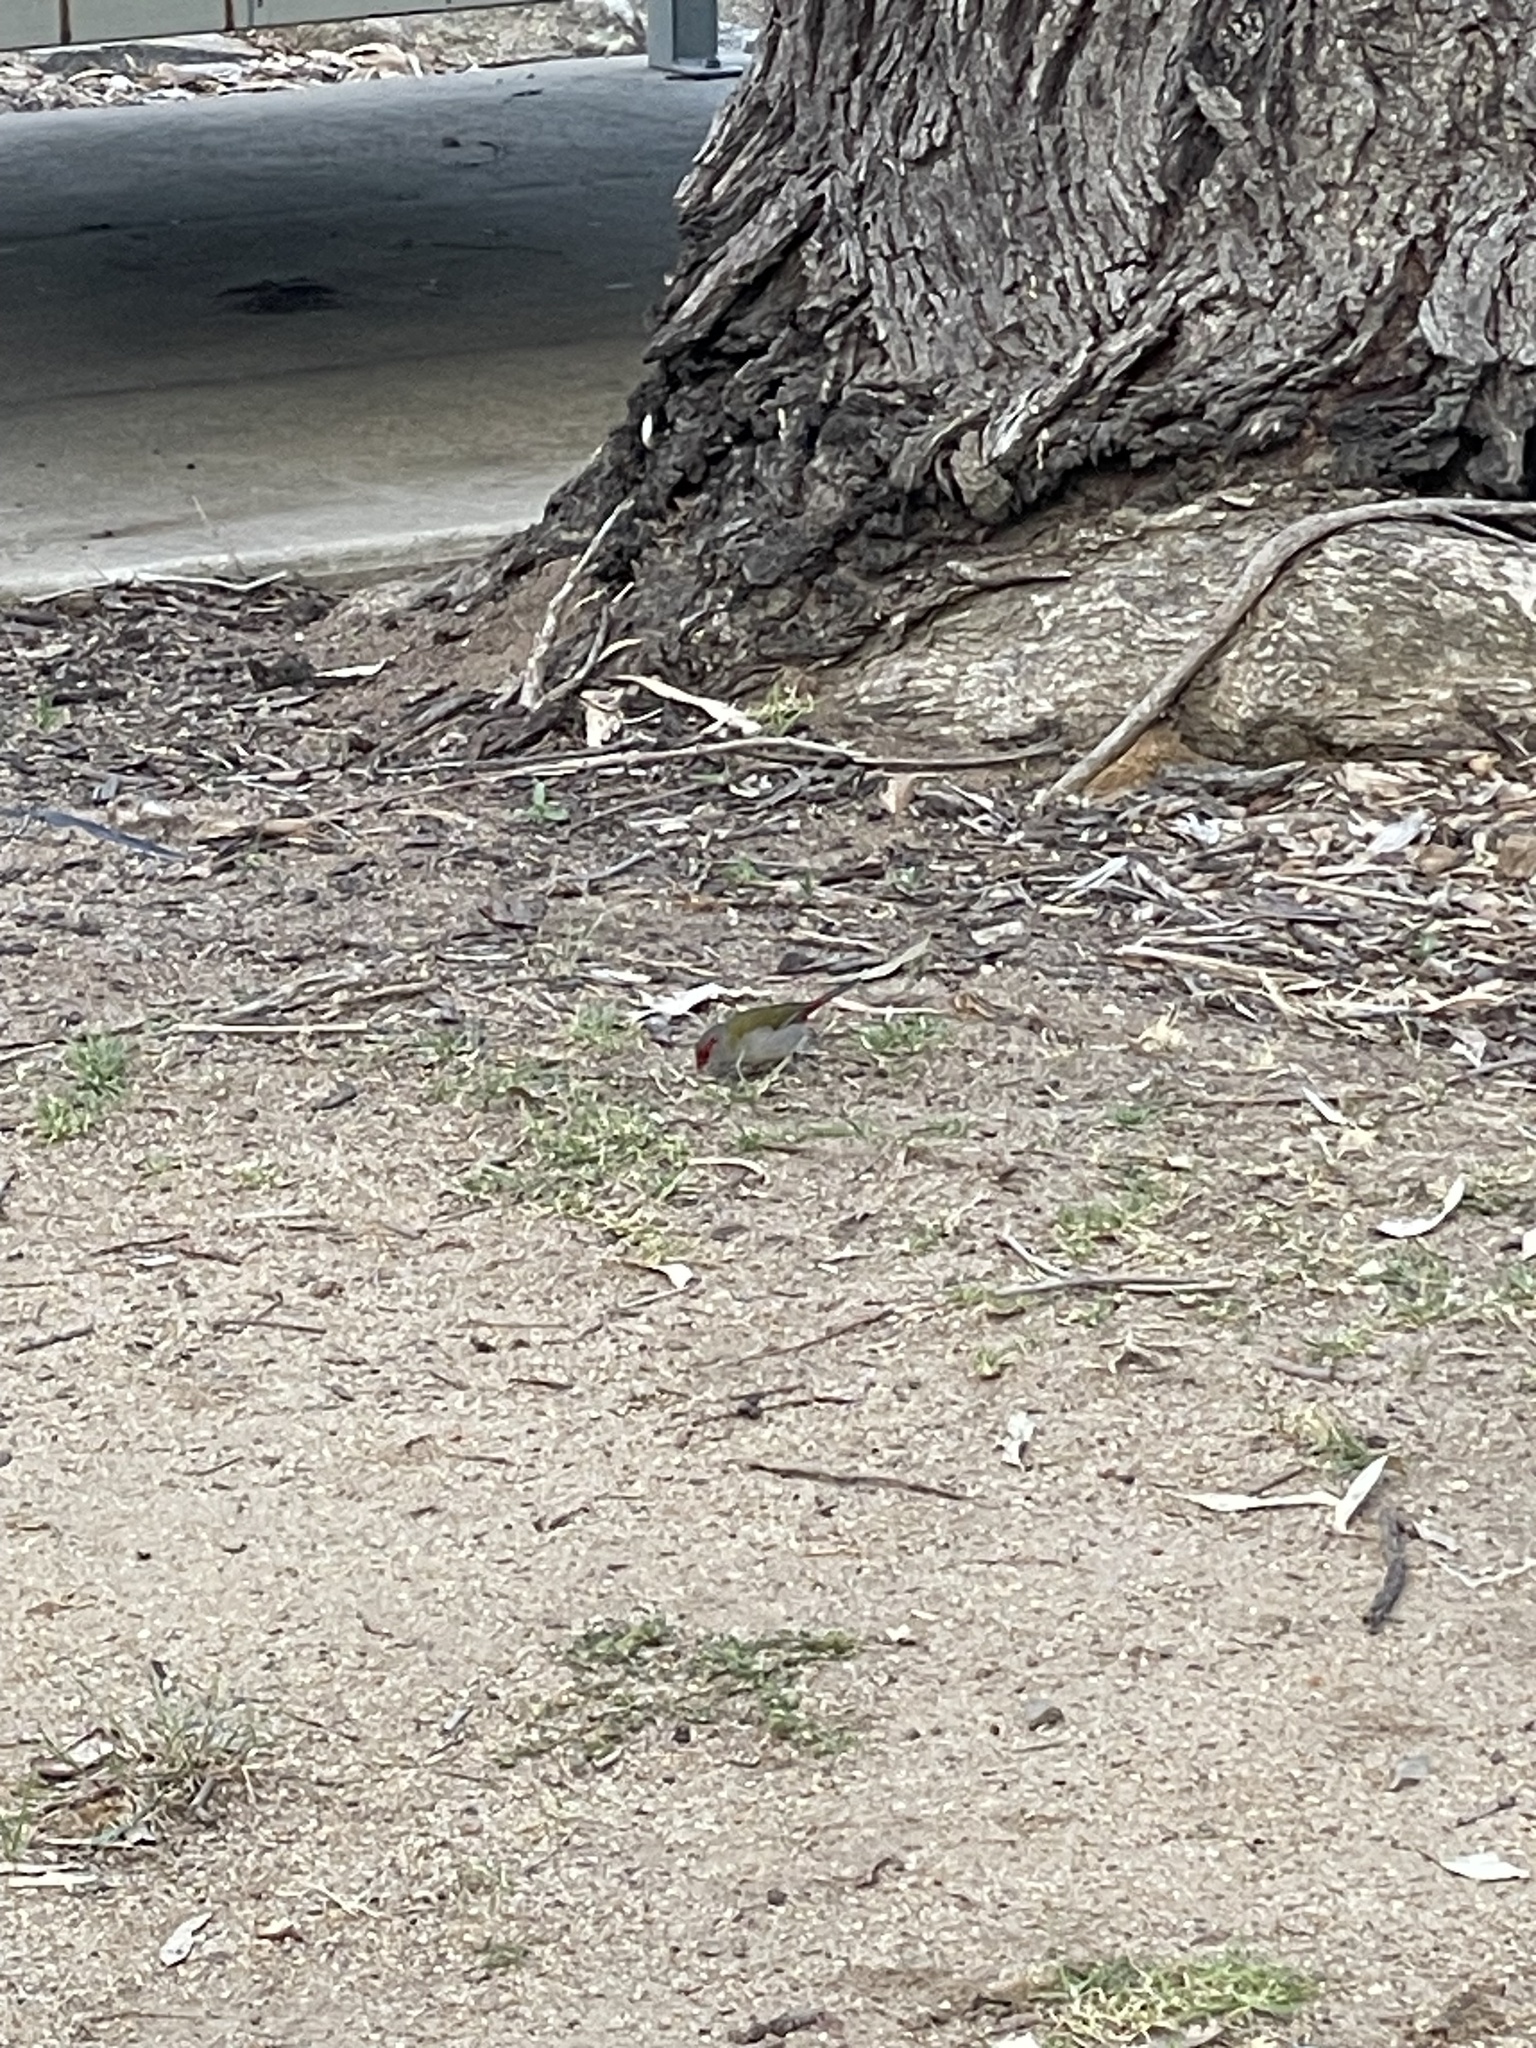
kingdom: Animalia
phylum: Chordata
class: Aves
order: Passeriformes
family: Estrildidae
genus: Neochmia
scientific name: Neochmia temporalis
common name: Red-browed finch
